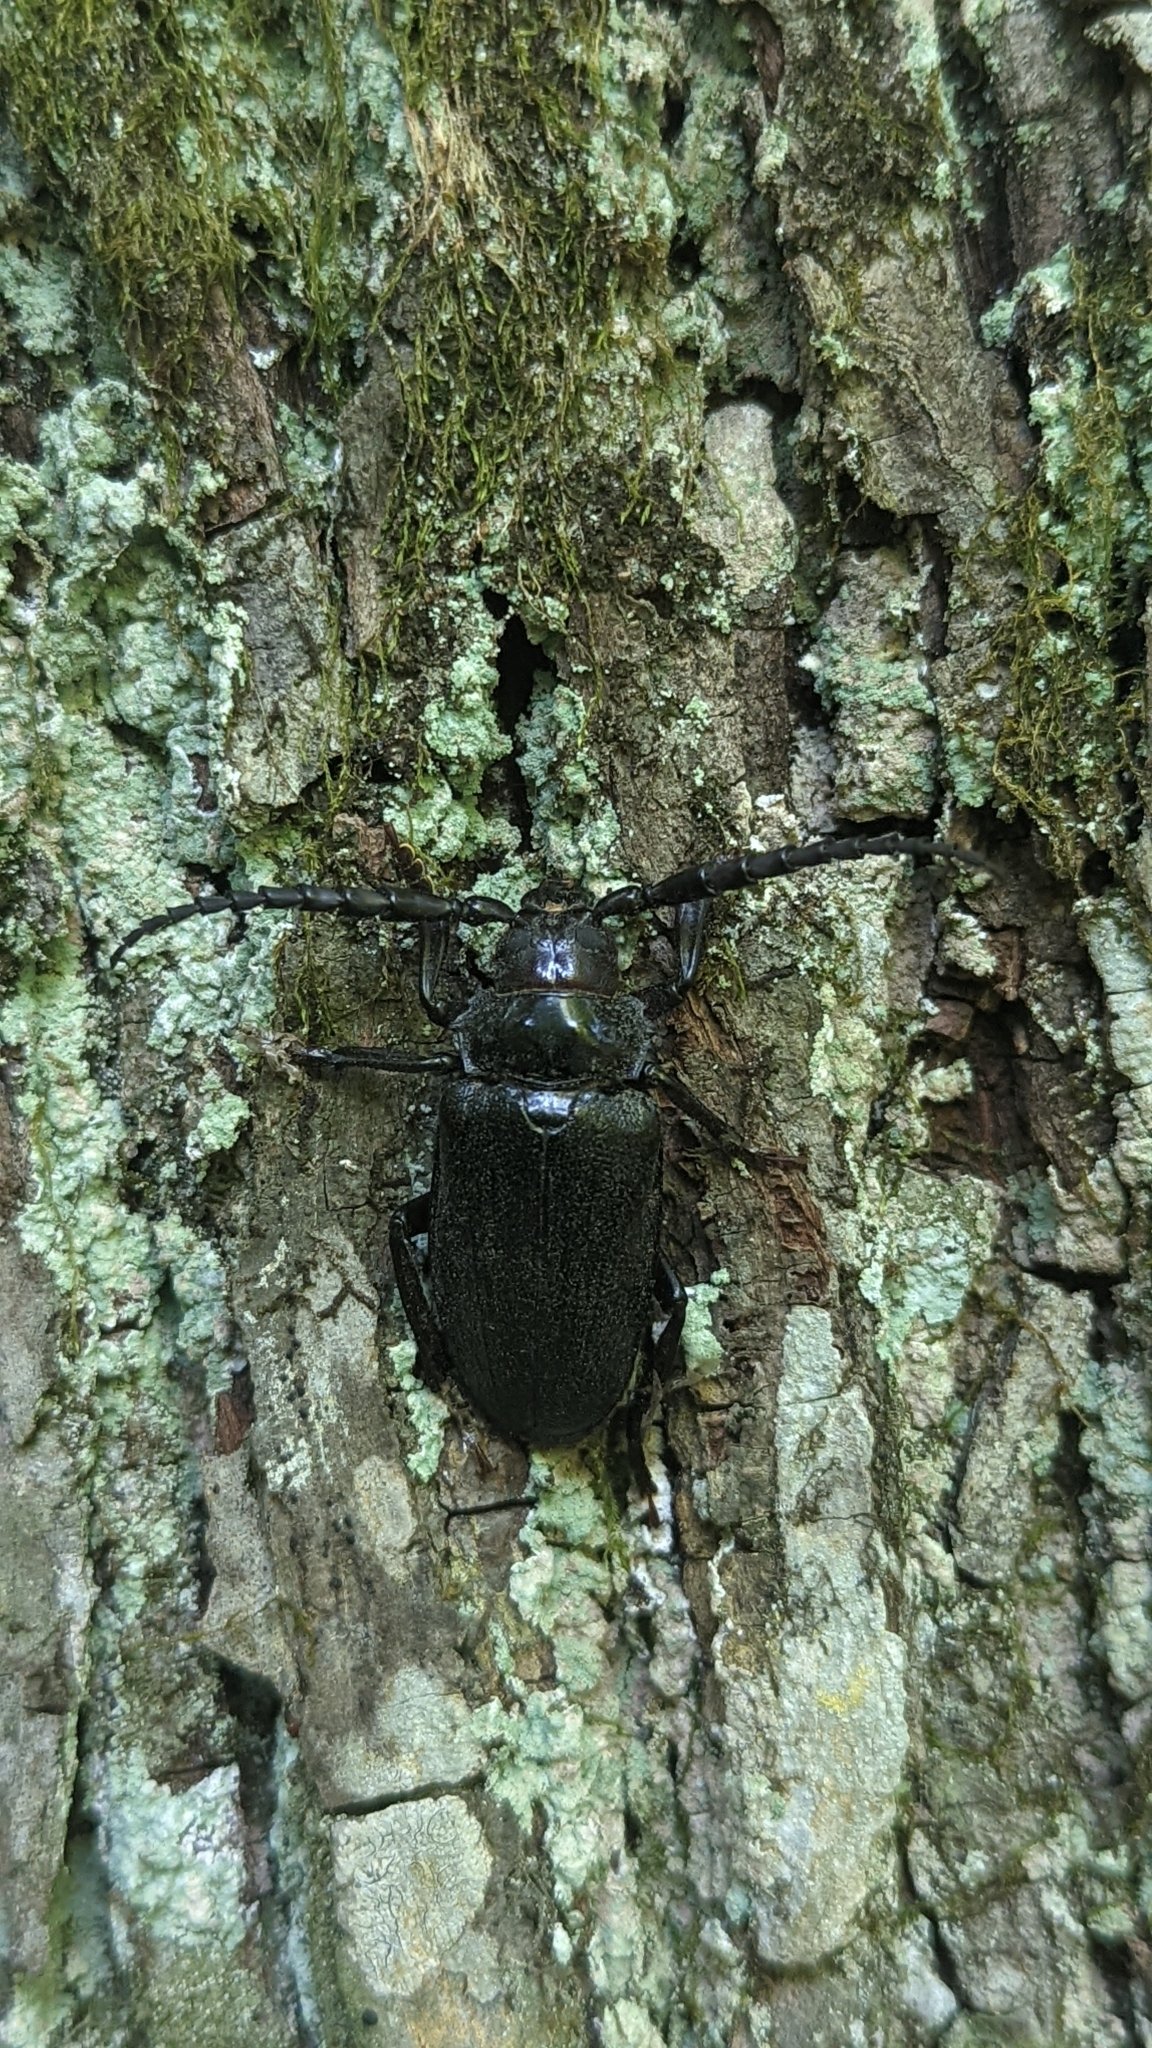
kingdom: Animalia
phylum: Arthropoda
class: Insecta
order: Coleoptera
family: Cerambycidae
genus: Prionus
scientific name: Prionus laticollis
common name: Broad necked prionus
